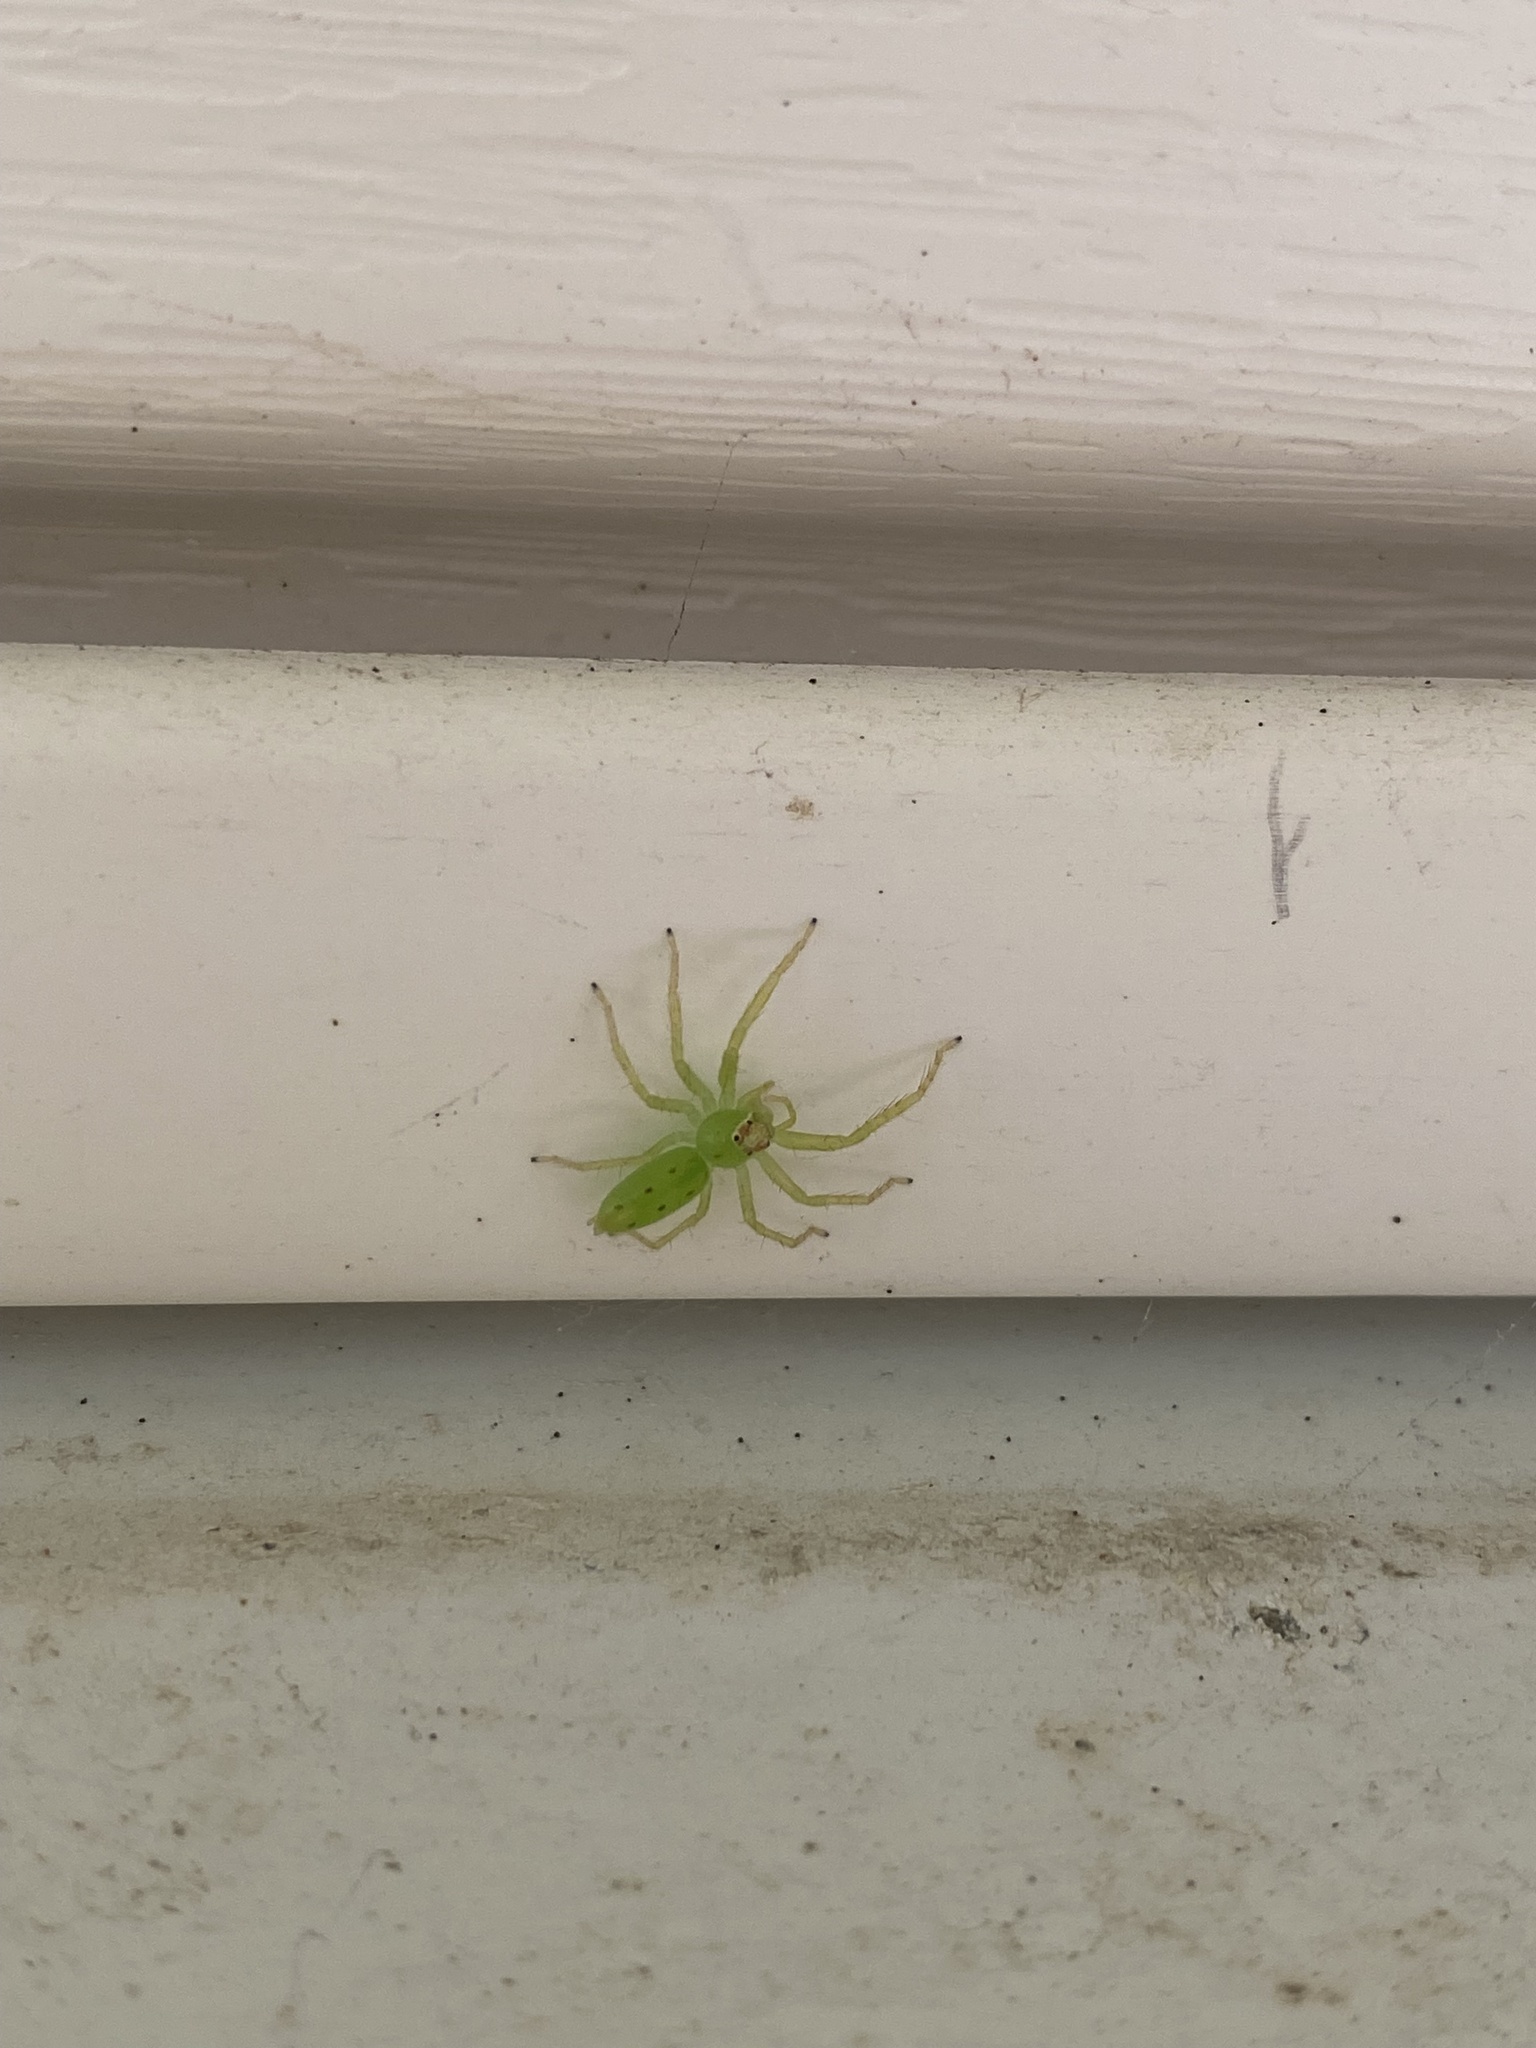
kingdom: Animalia
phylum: Arthropoda
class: Arachnida
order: Araneae
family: Salticidae
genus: Lyssomanes
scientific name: Lyssomanes viridis
